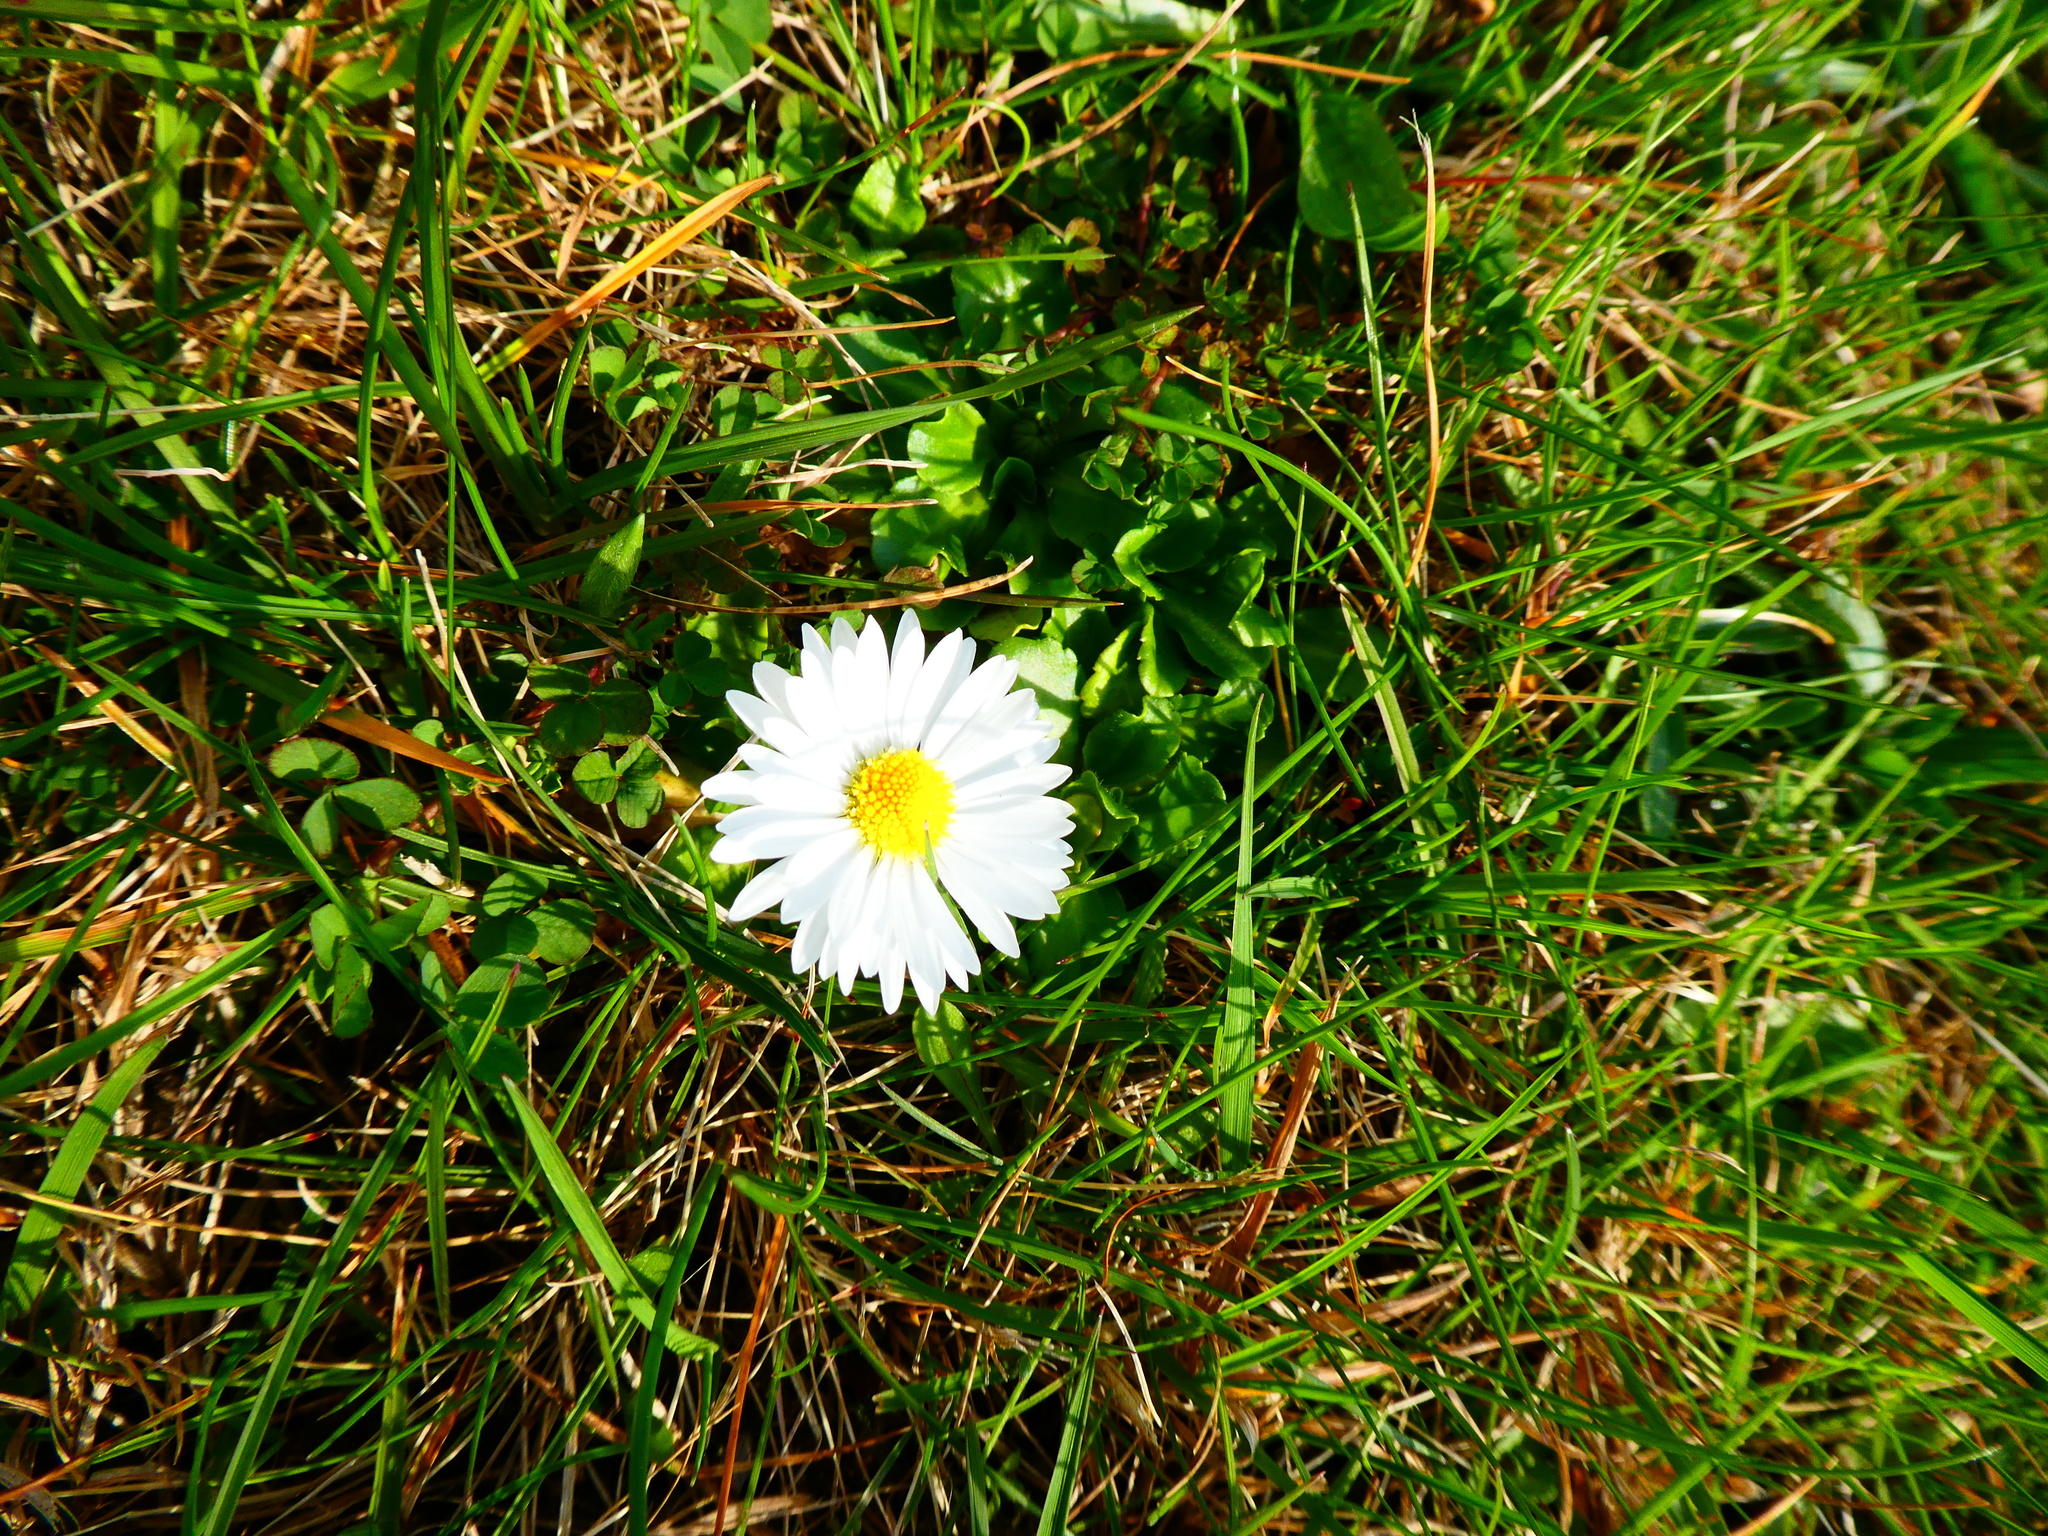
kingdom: Plantae
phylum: Tracheophyta
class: Magnoliopsida
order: Asterales
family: Asteraceae
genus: Bellis
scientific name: Bellis perennis
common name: Lawndaisy
